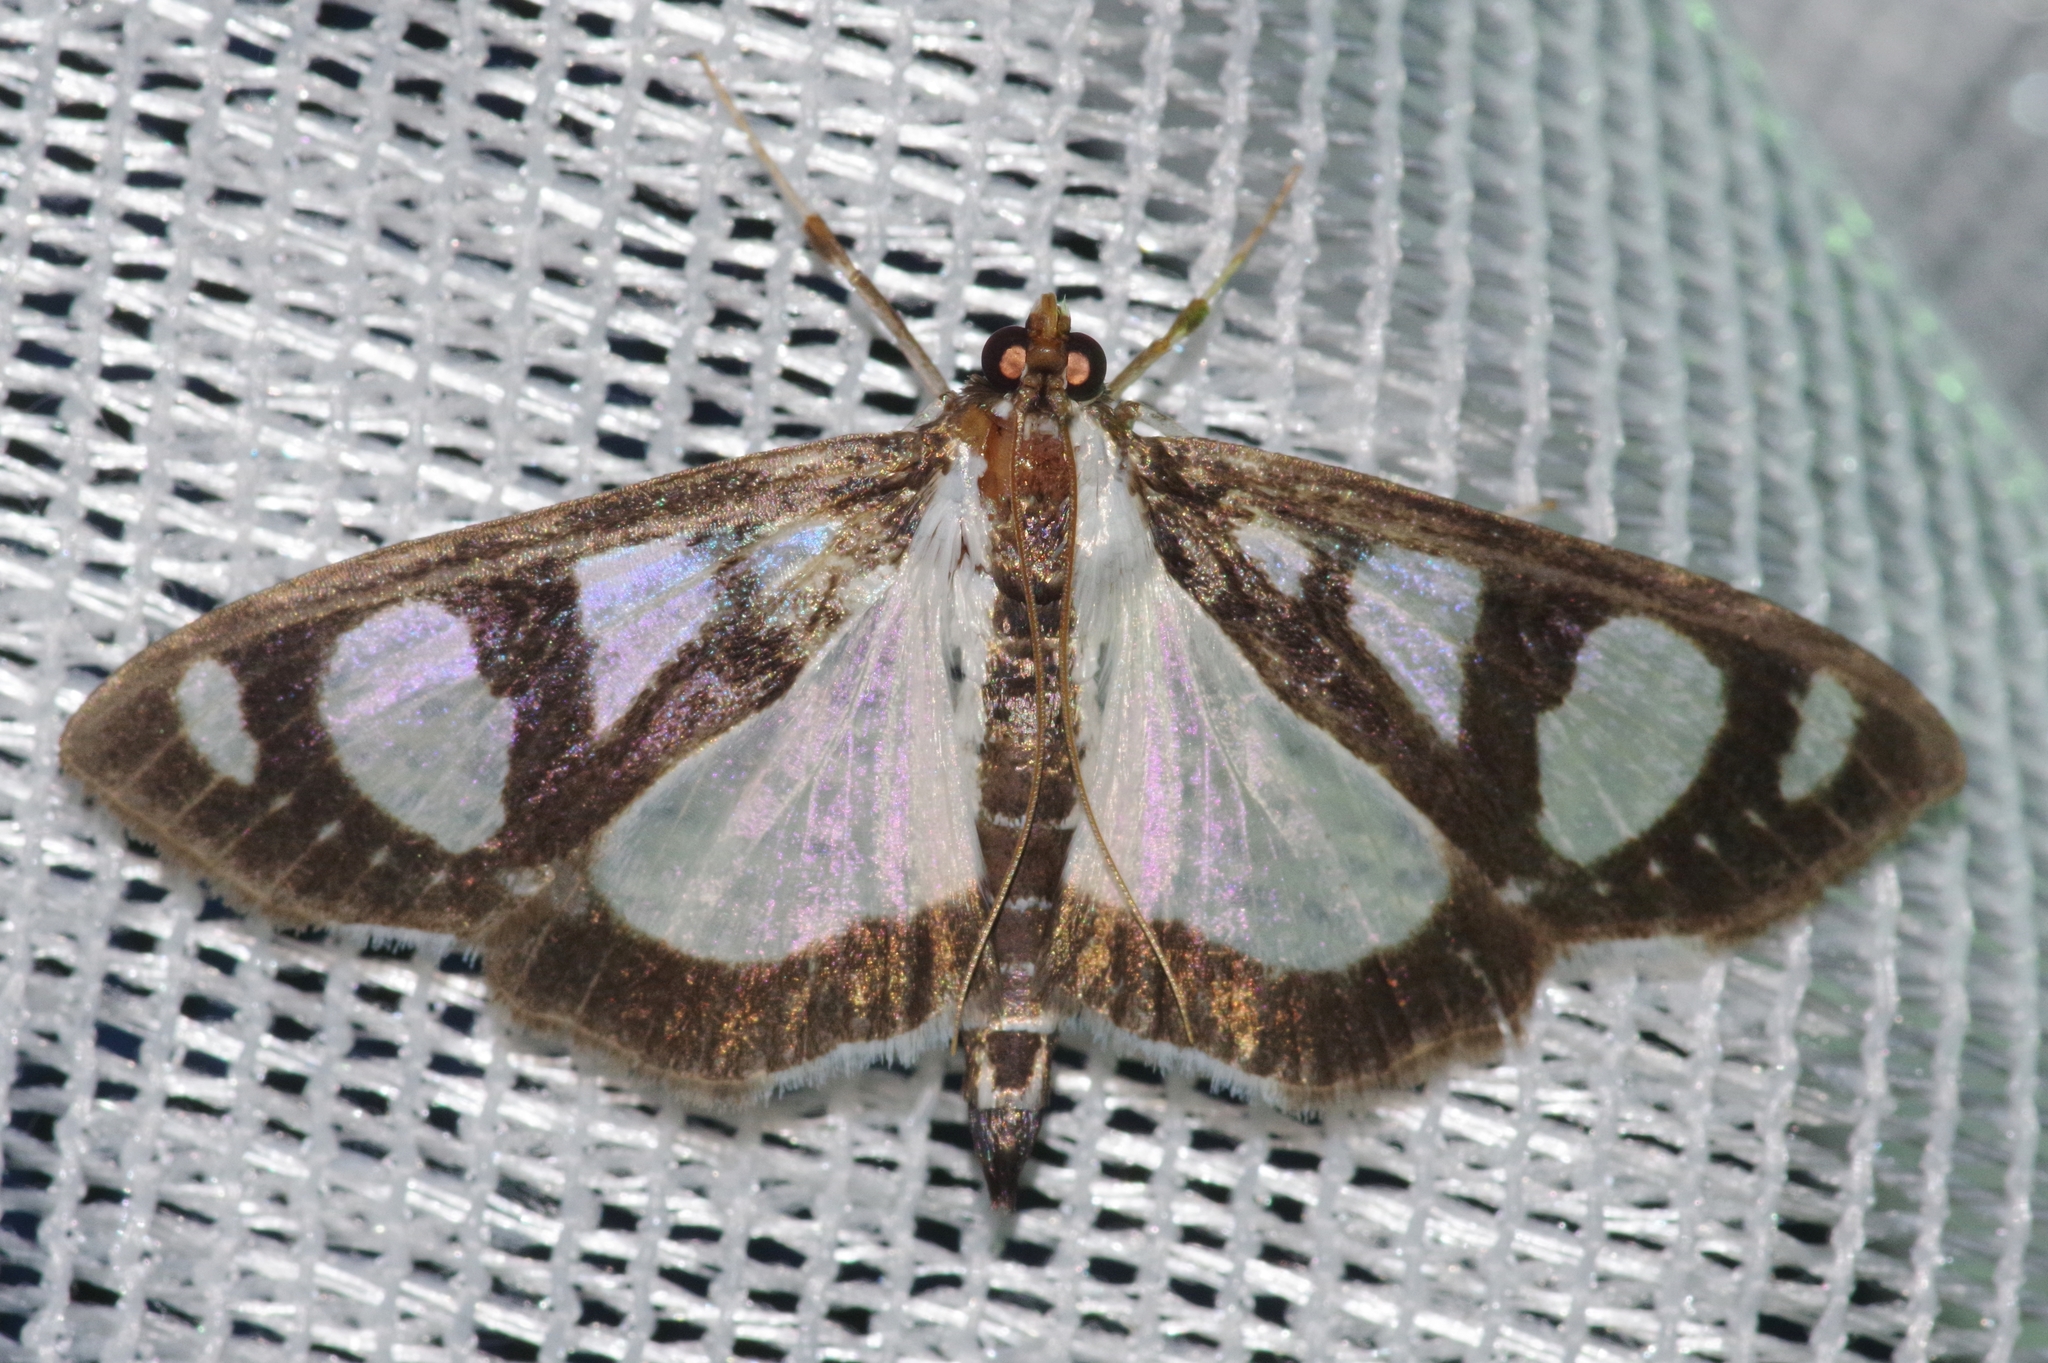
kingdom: Animalia
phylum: Arthropoda
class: Insecta
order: Lepidoptera
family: Crambidae
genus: Glyphodes
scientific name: Glyphodes quadrimaculalis
